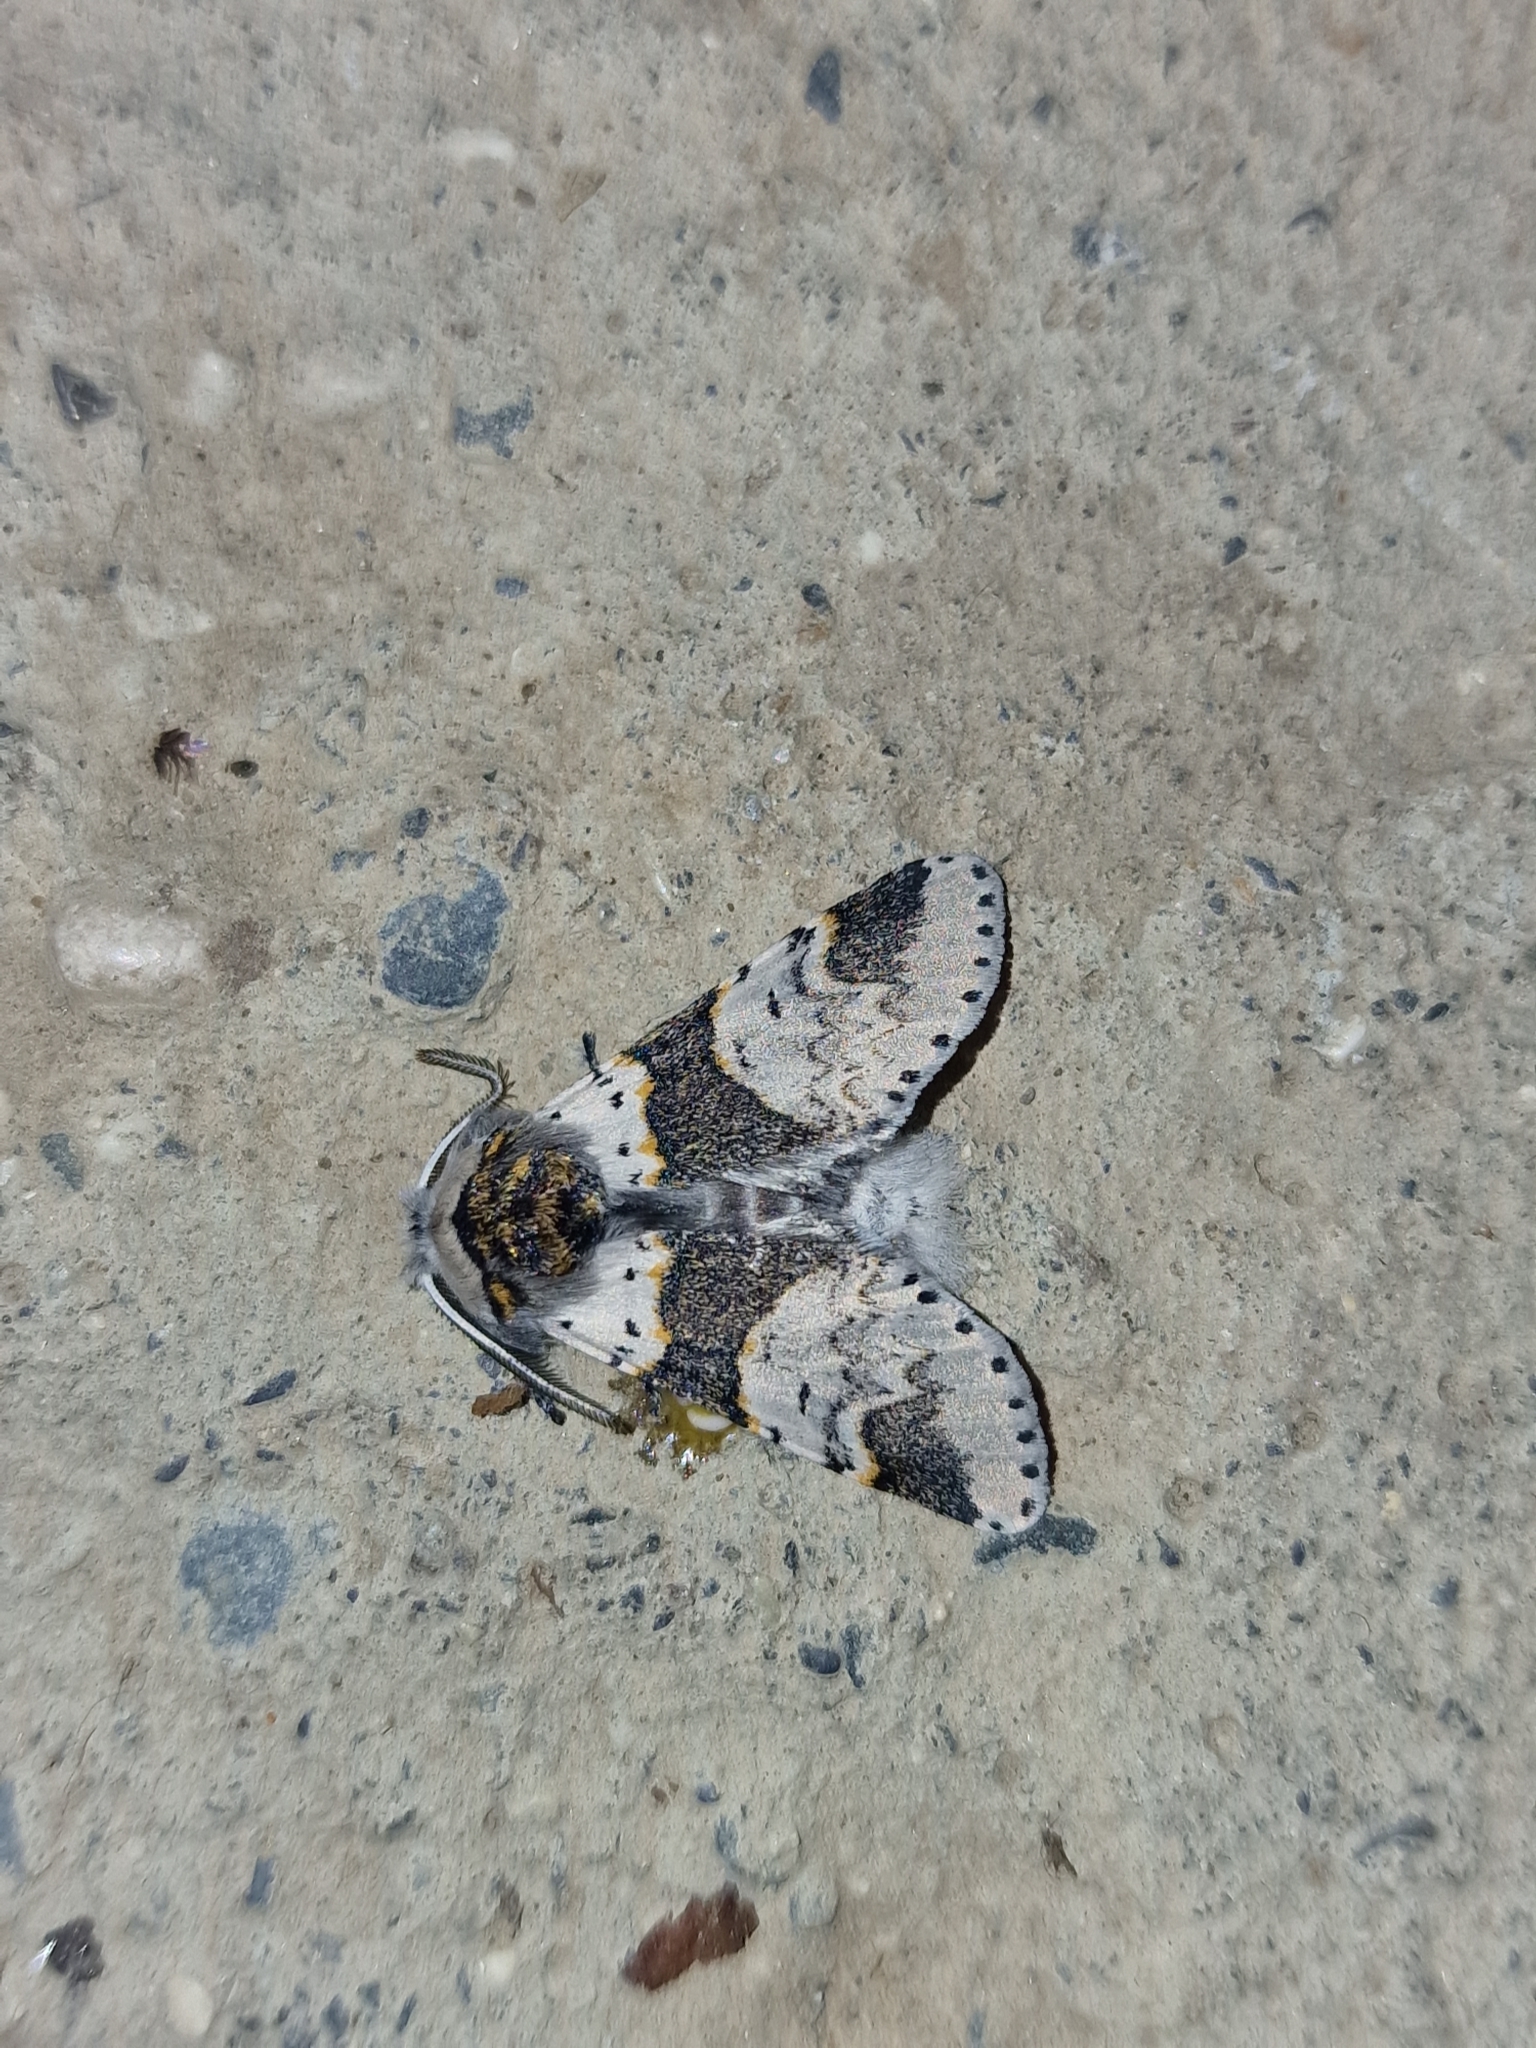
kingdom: Animalia
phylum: Arthropoda
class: Insecta
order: Lepidoptera
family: Notodontidae
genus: Furcula
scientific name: Furcula furcula
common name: Sallow kitten
